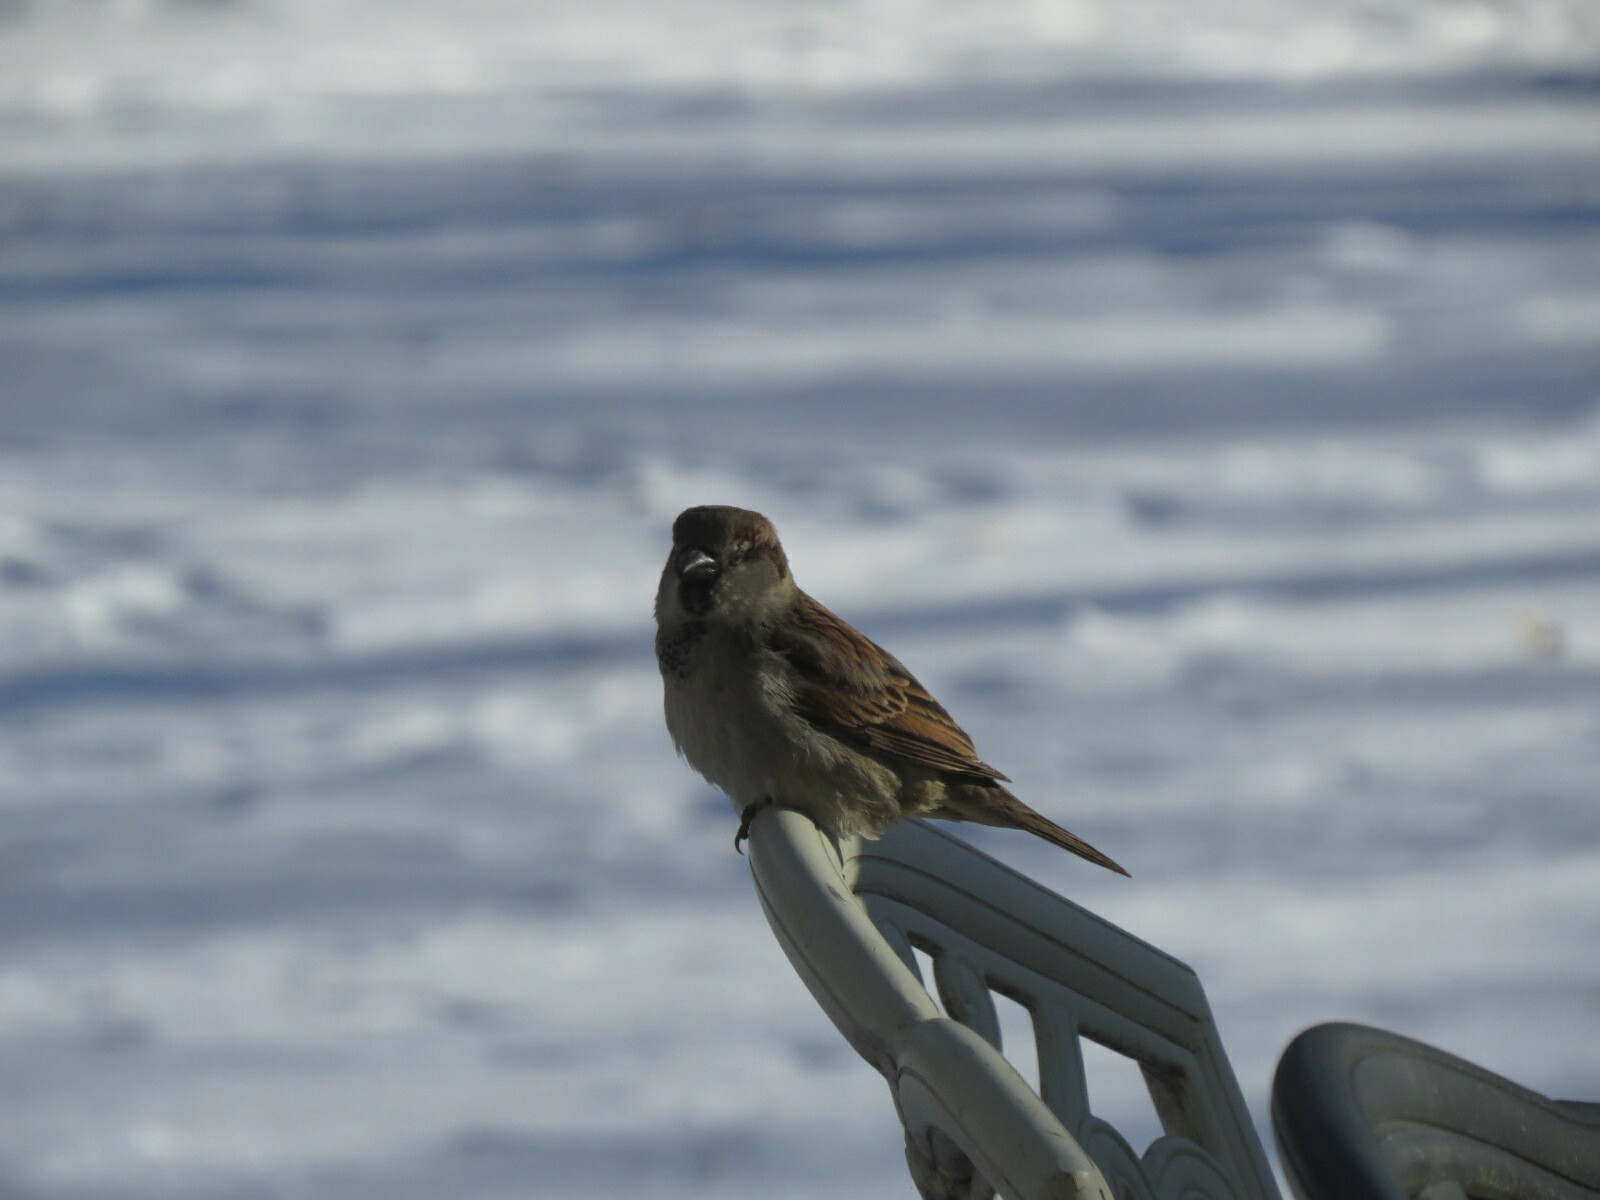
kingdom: Animalia
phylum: Chordata
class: Aves
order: Passeriformes
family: Passeridae
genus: Passer
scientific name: Passer domesticus
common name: House sparrow
